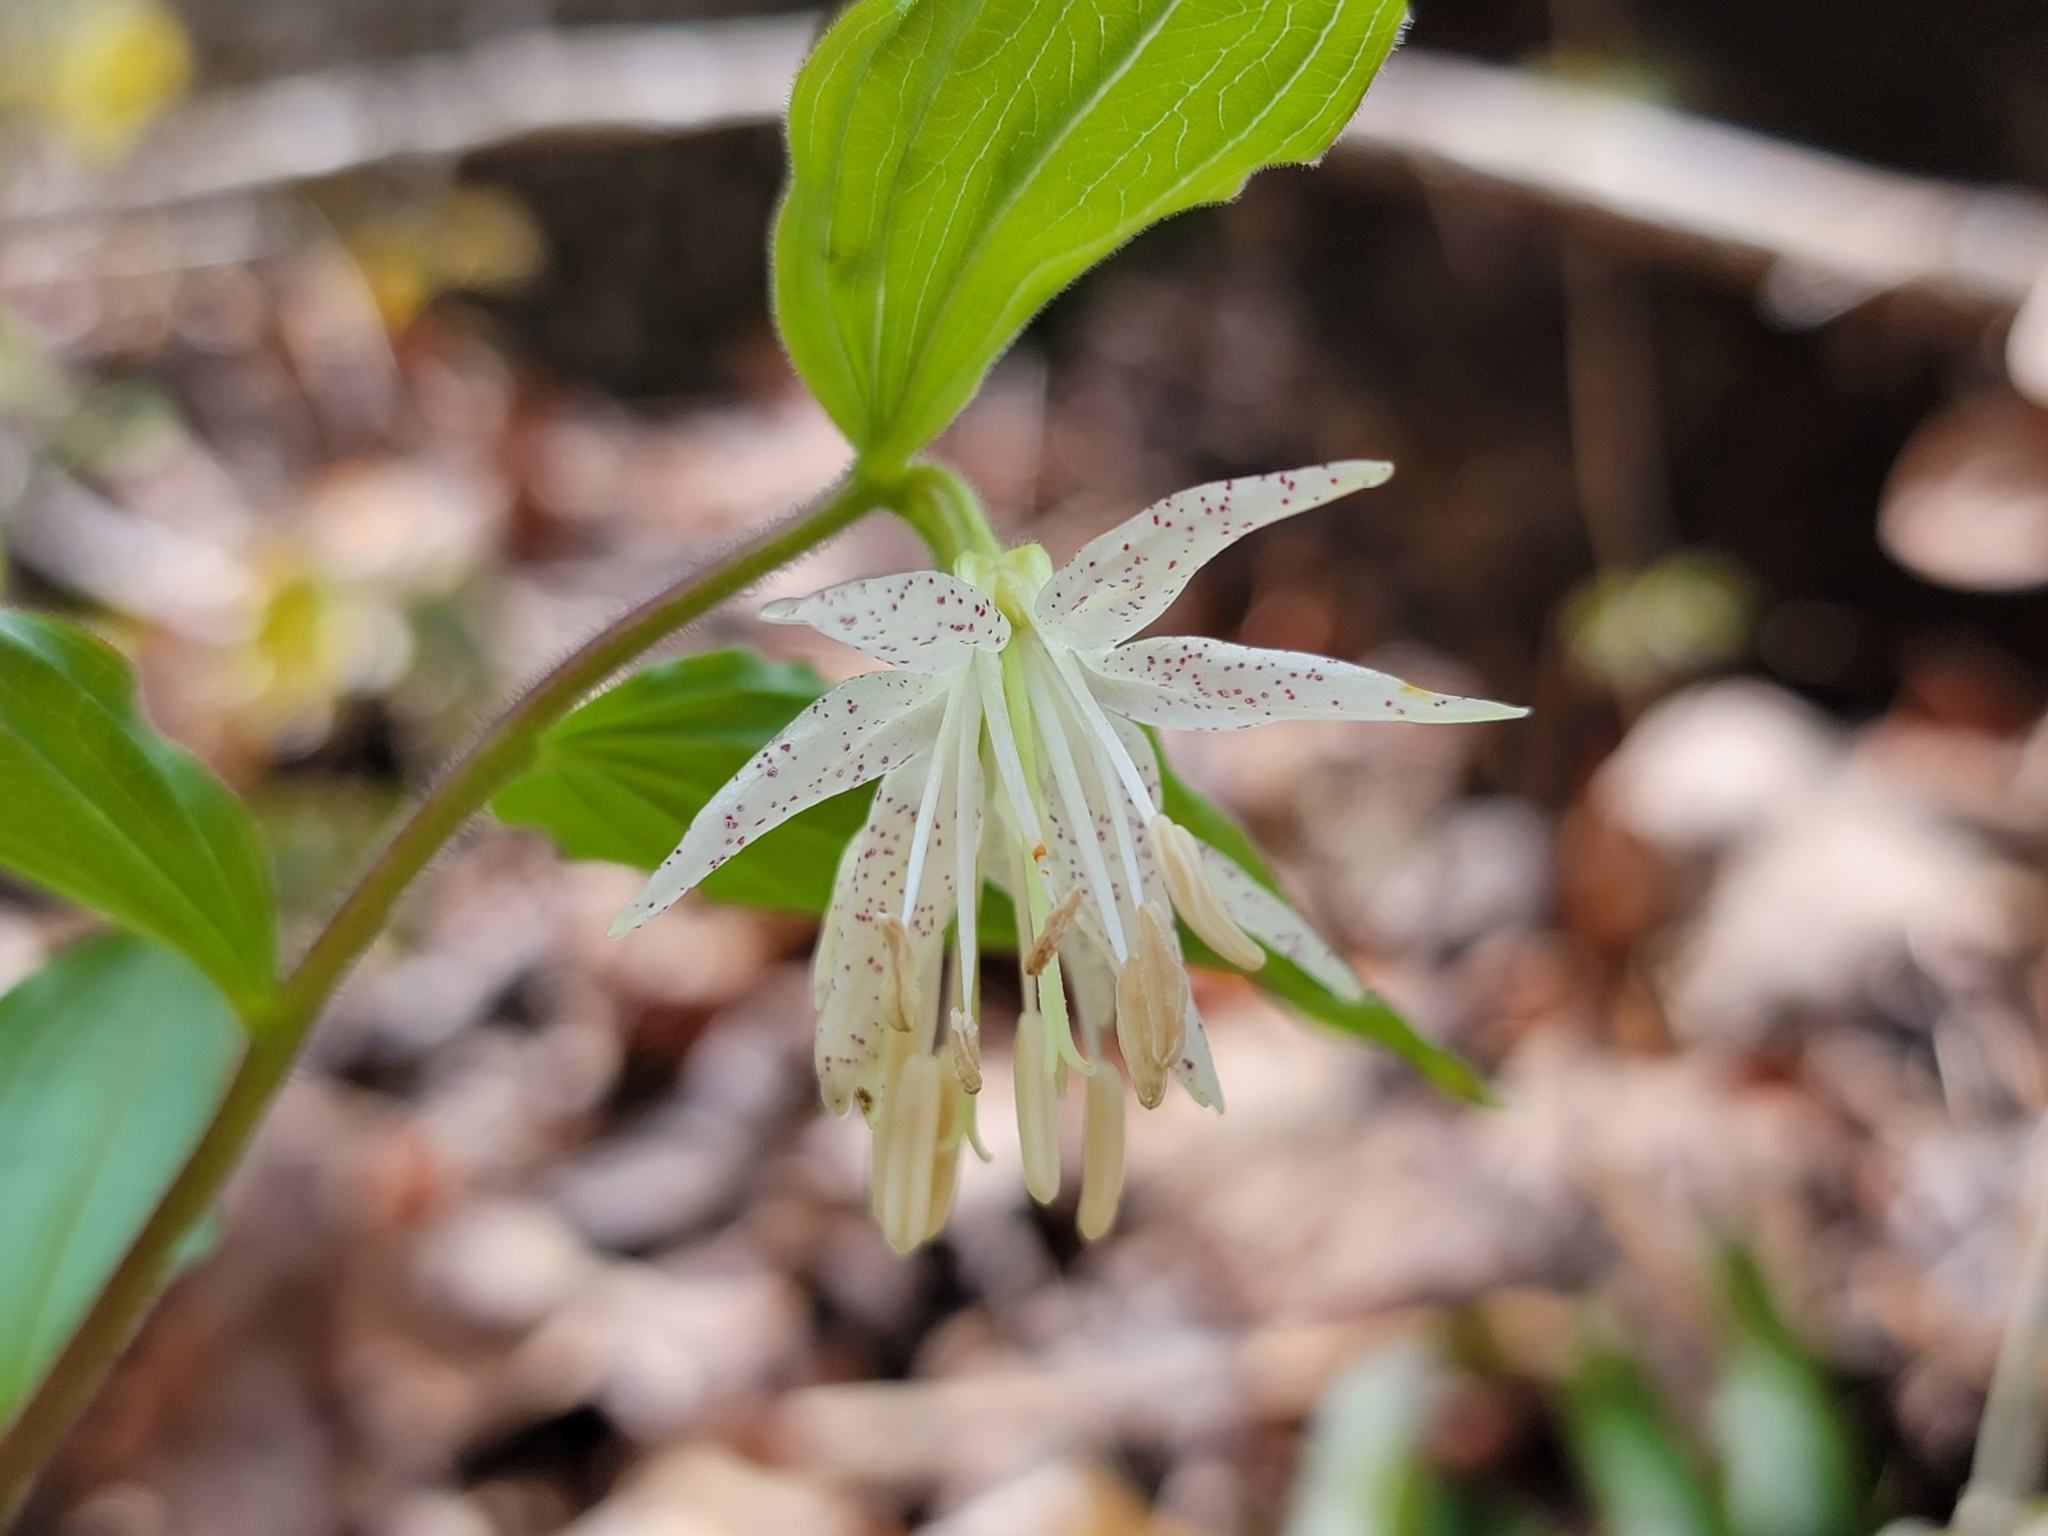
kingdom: Plantae
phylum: Tracheophyta
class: Liliopsida
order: Liliales
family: Liliaceae
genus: Prosartes
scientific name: Prosartes maculata
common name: Yellow mandarin
